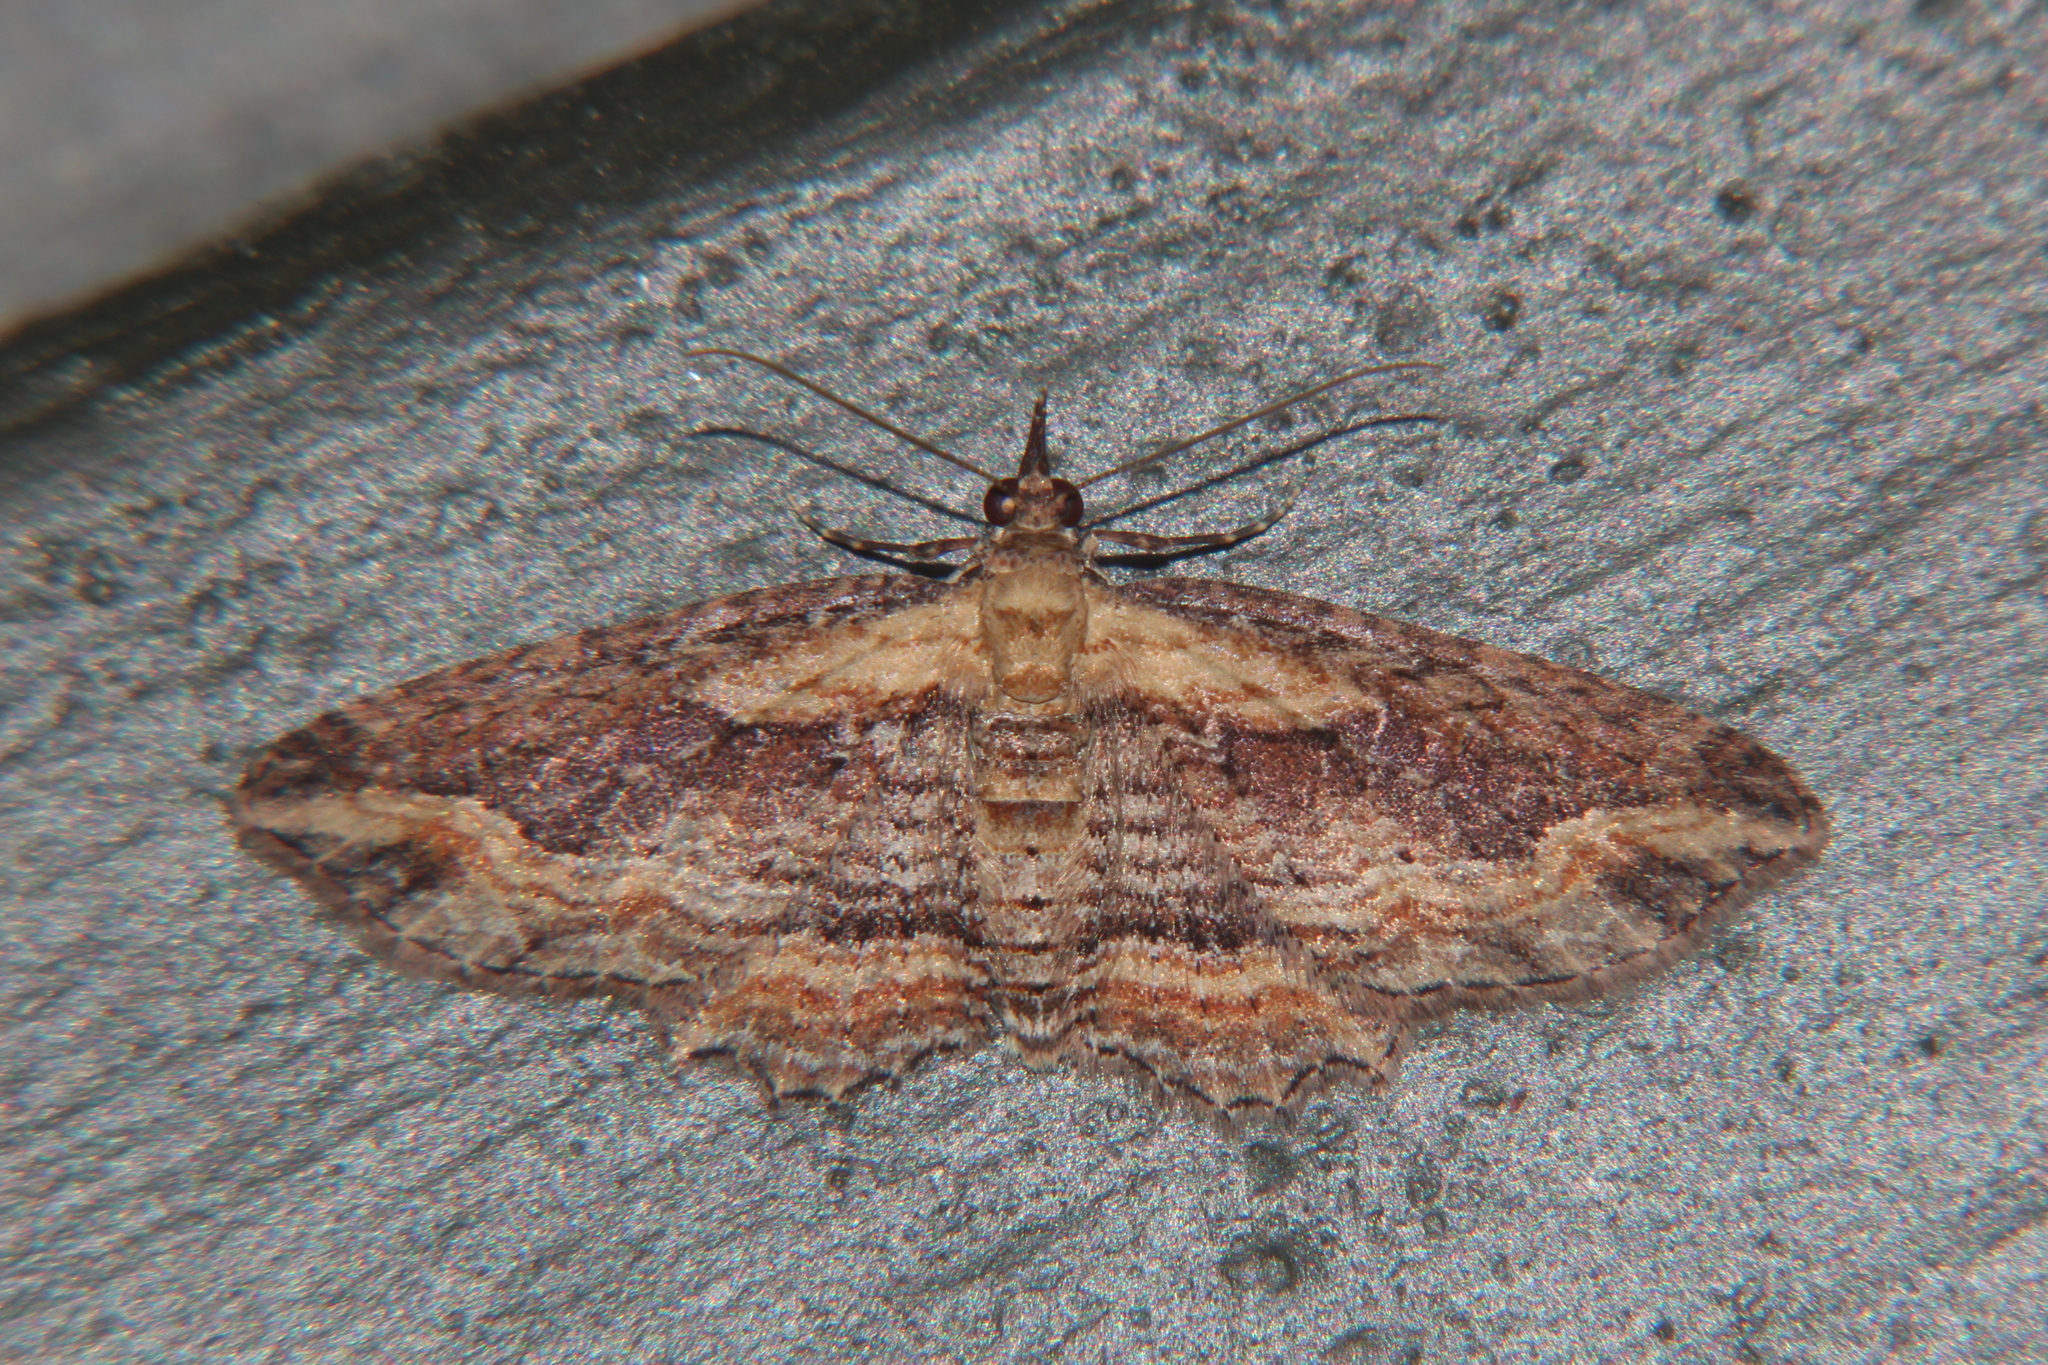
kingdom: Animalia
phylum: Arthropoda
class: Insecta
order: Lepidoptera
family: Geometridae
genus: Chloroclystis
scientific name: Chloroclystis filata
